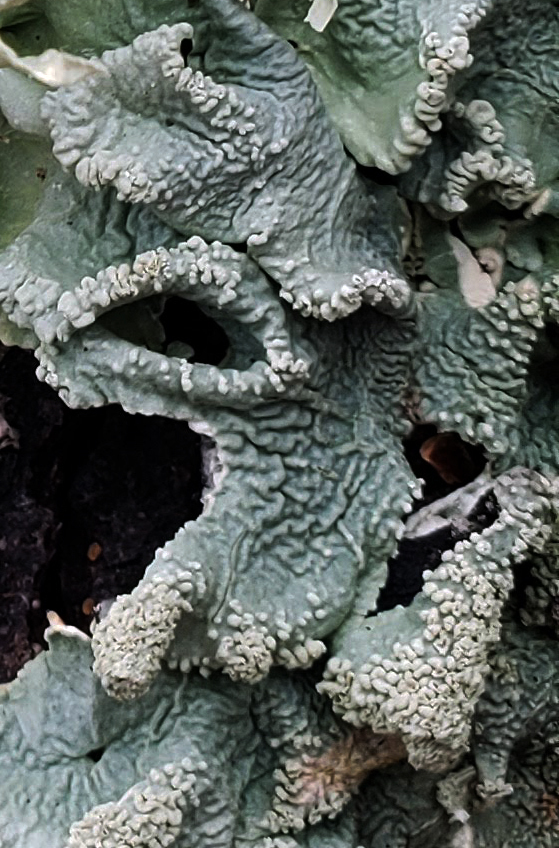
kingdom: Fungi
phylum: Ascomycota
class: Lecanoromycetes
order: Lecanorales
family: Parmeliaceae
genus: Flavoparmelia
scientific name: Flavoparmelia caperata
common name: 40-mile per hour lichen
